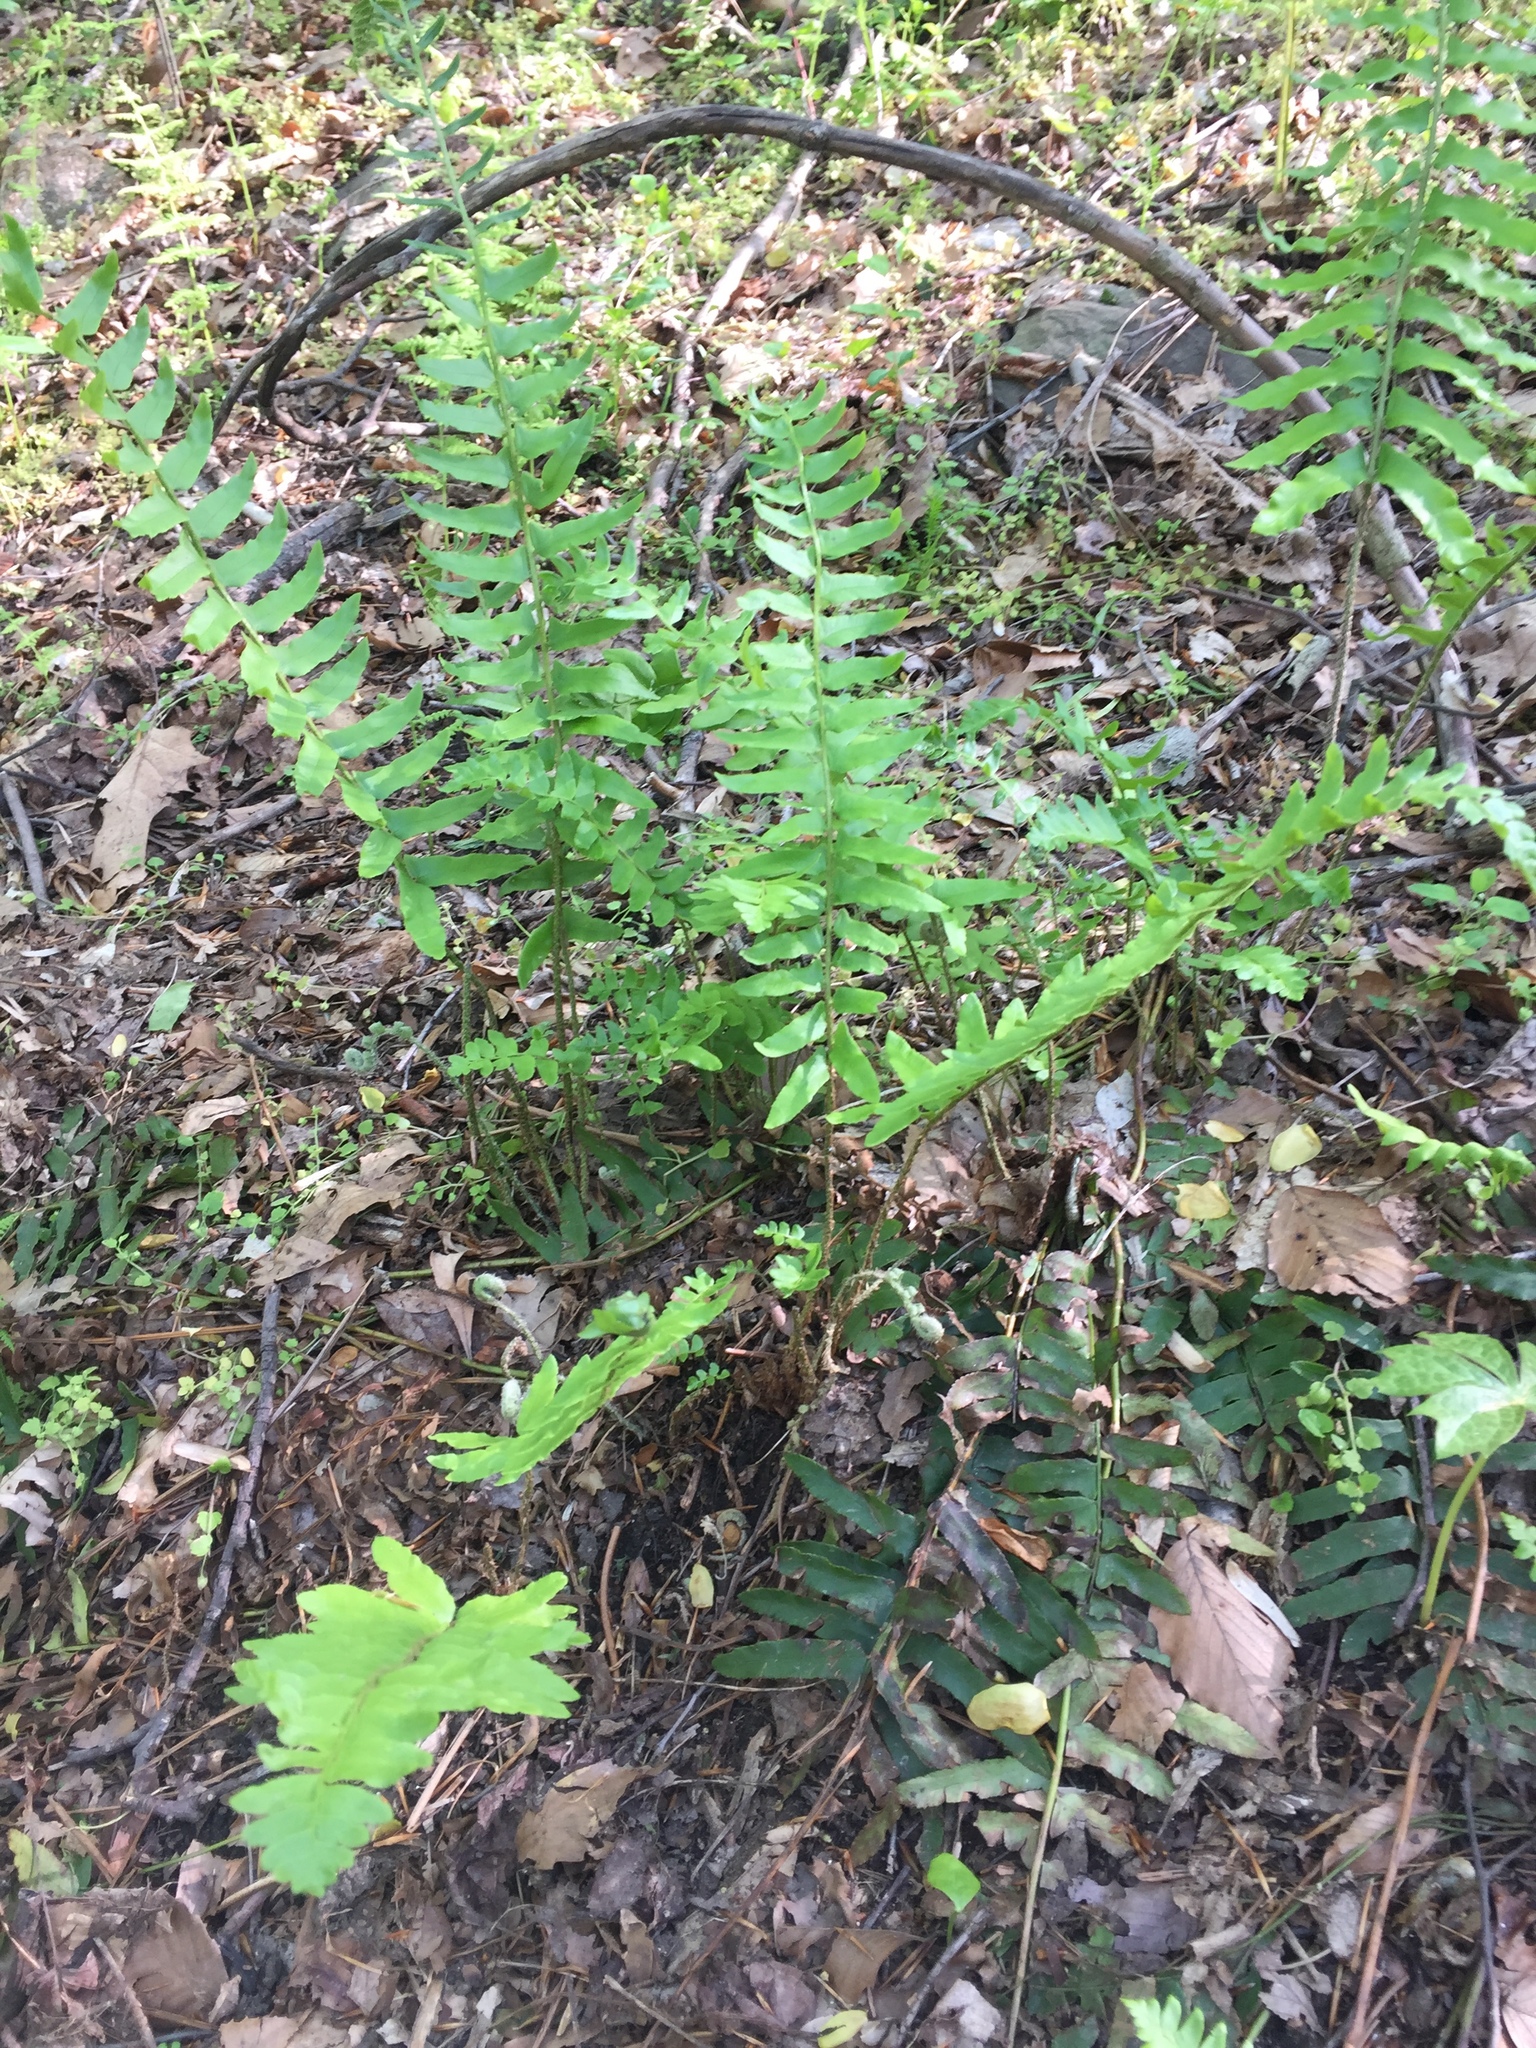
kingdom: Plantae
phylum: Tracheophyta
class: Polypodiopsida
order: Polypodiales
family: Dryopteridaceae
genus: Polystichum
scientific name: Polystichum acrostichoides
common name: Christmas fern
